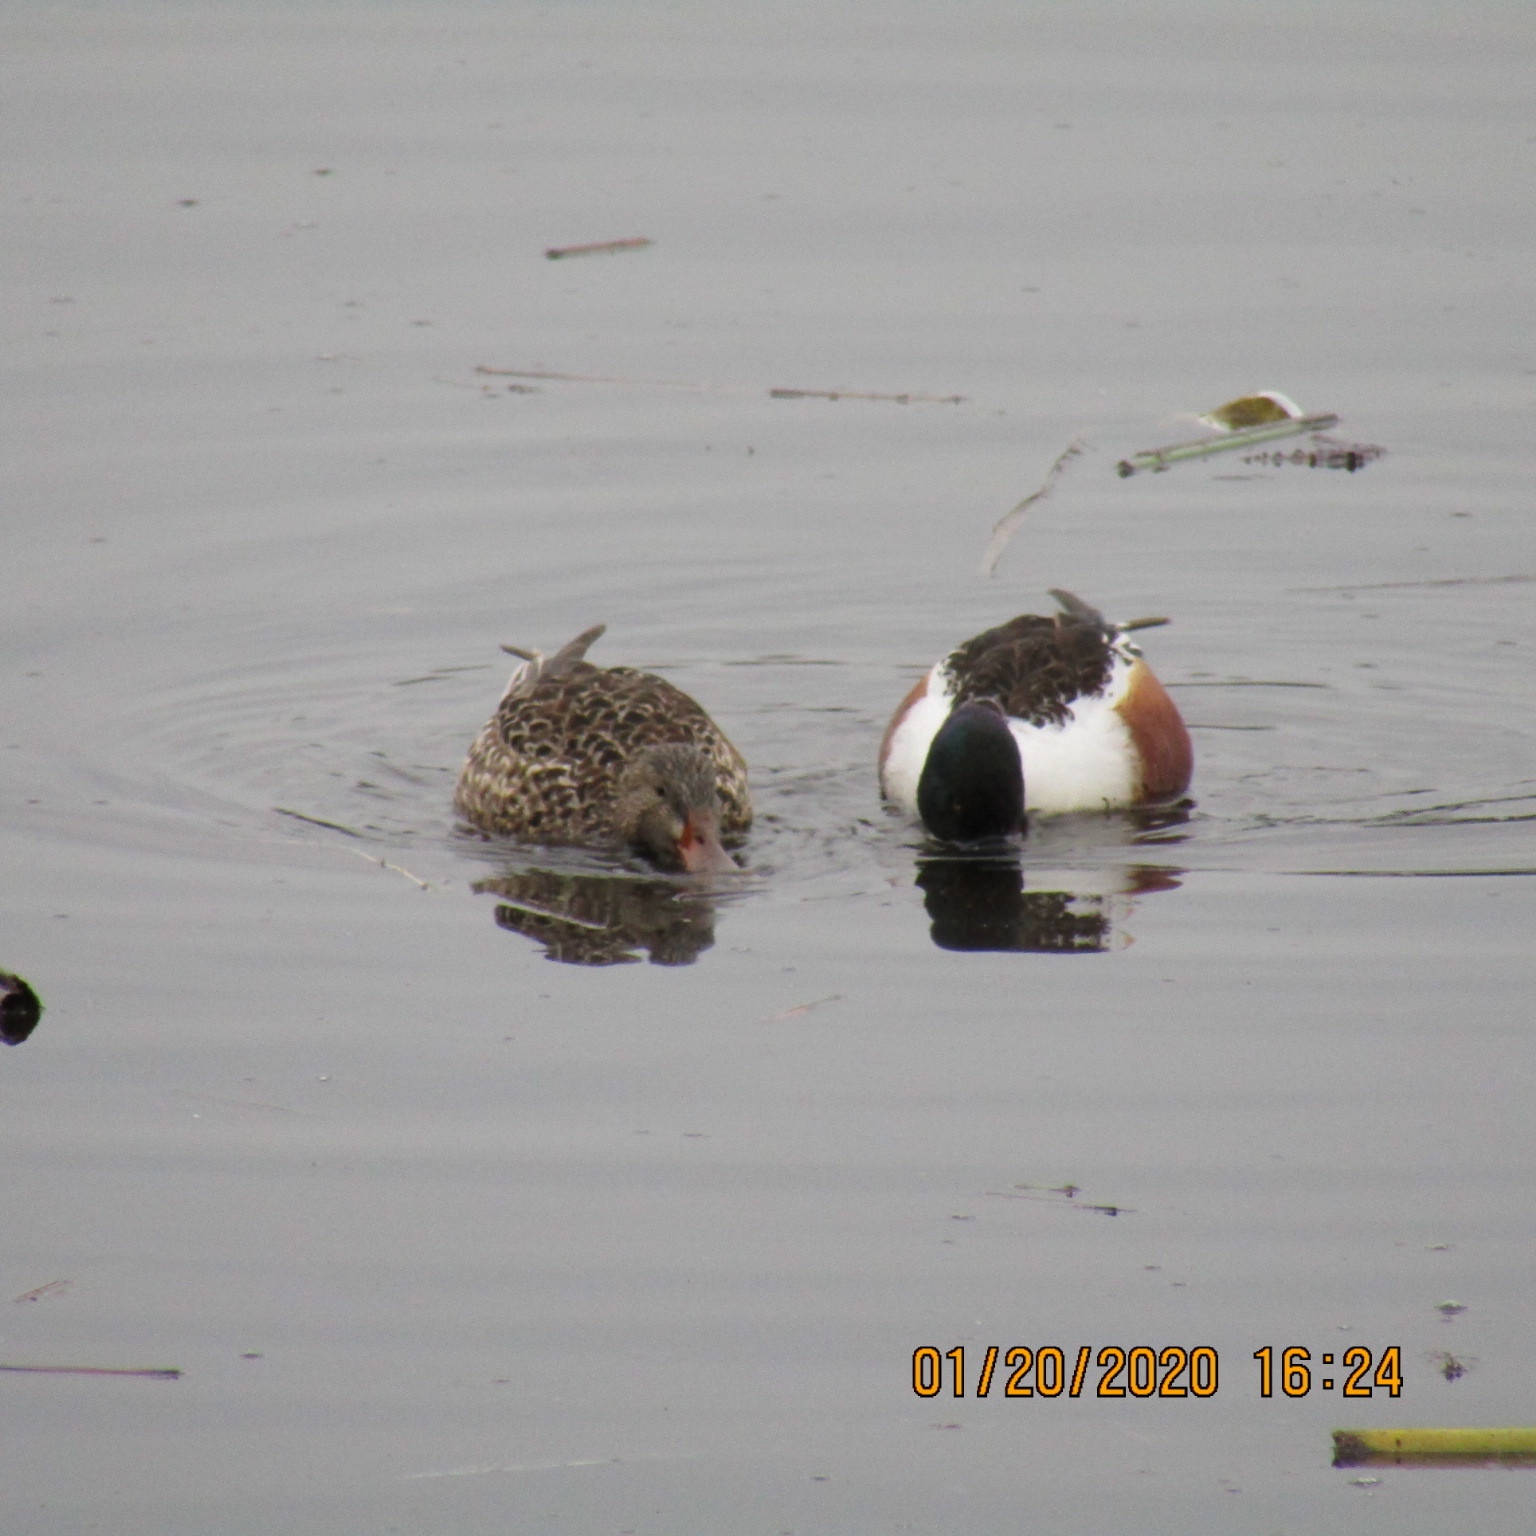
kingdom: Animalia
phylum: Chordata
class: Aves
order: Anseriformes
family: Anatidae
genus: Spatula
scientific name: Spatula clypeata
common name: Northern shoveler
